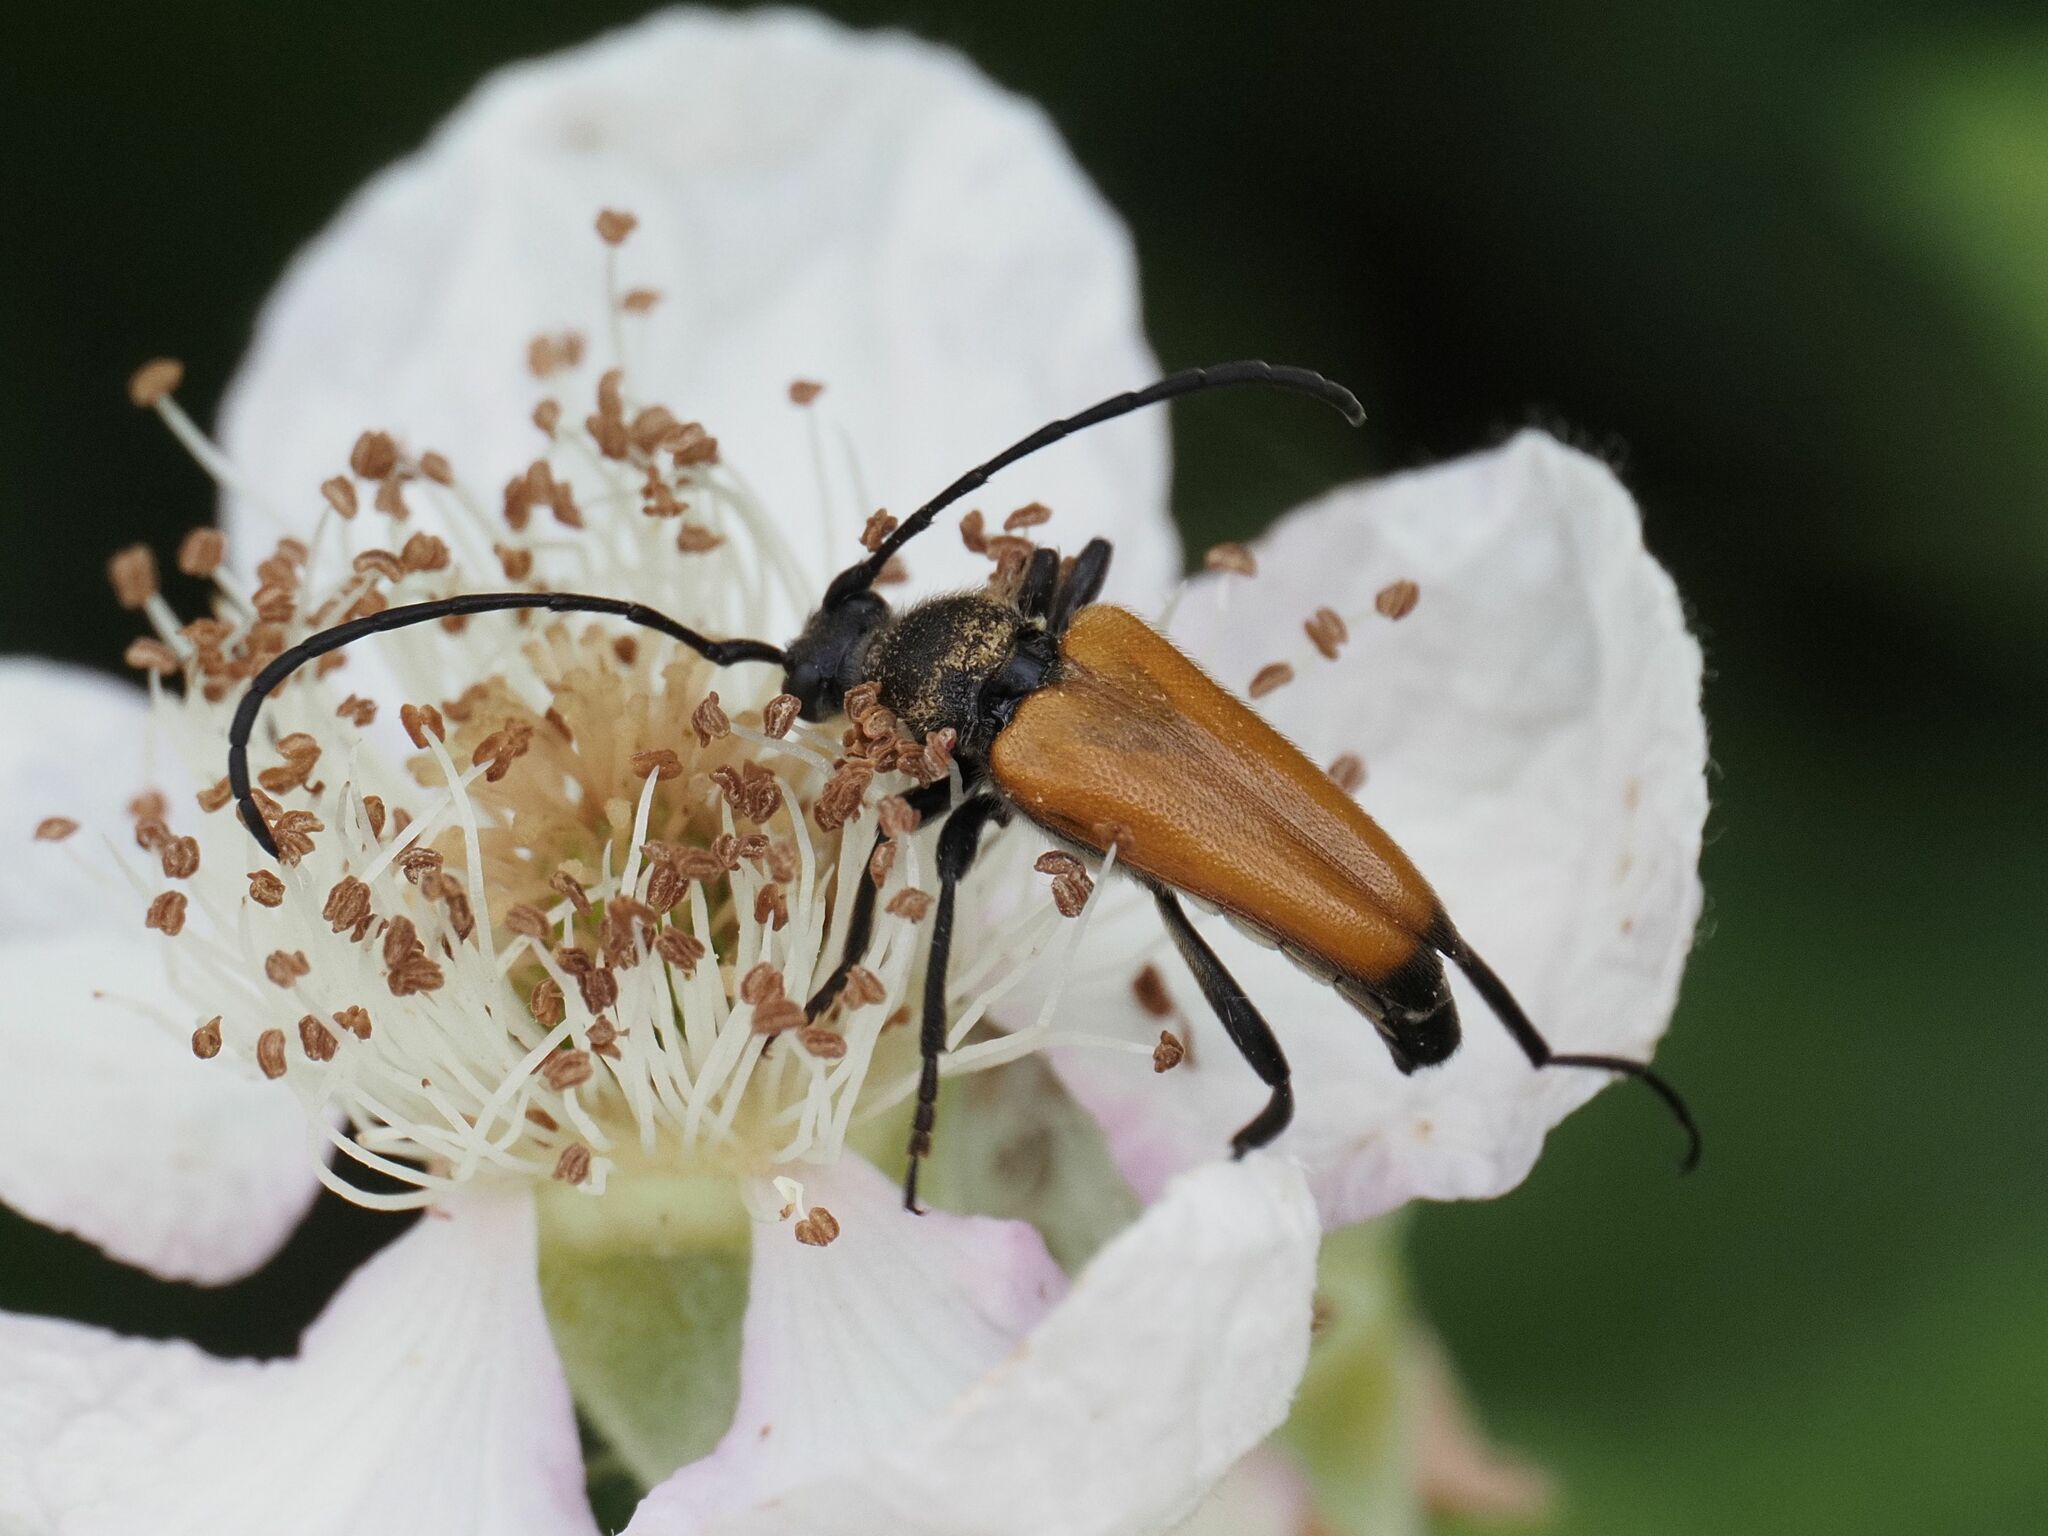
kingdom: Animalia
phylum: Arthropoda
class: Insecta
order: Coleoptera
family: Cerambycidae
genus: Paracorymbia
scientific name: Paracorymbia fulva
